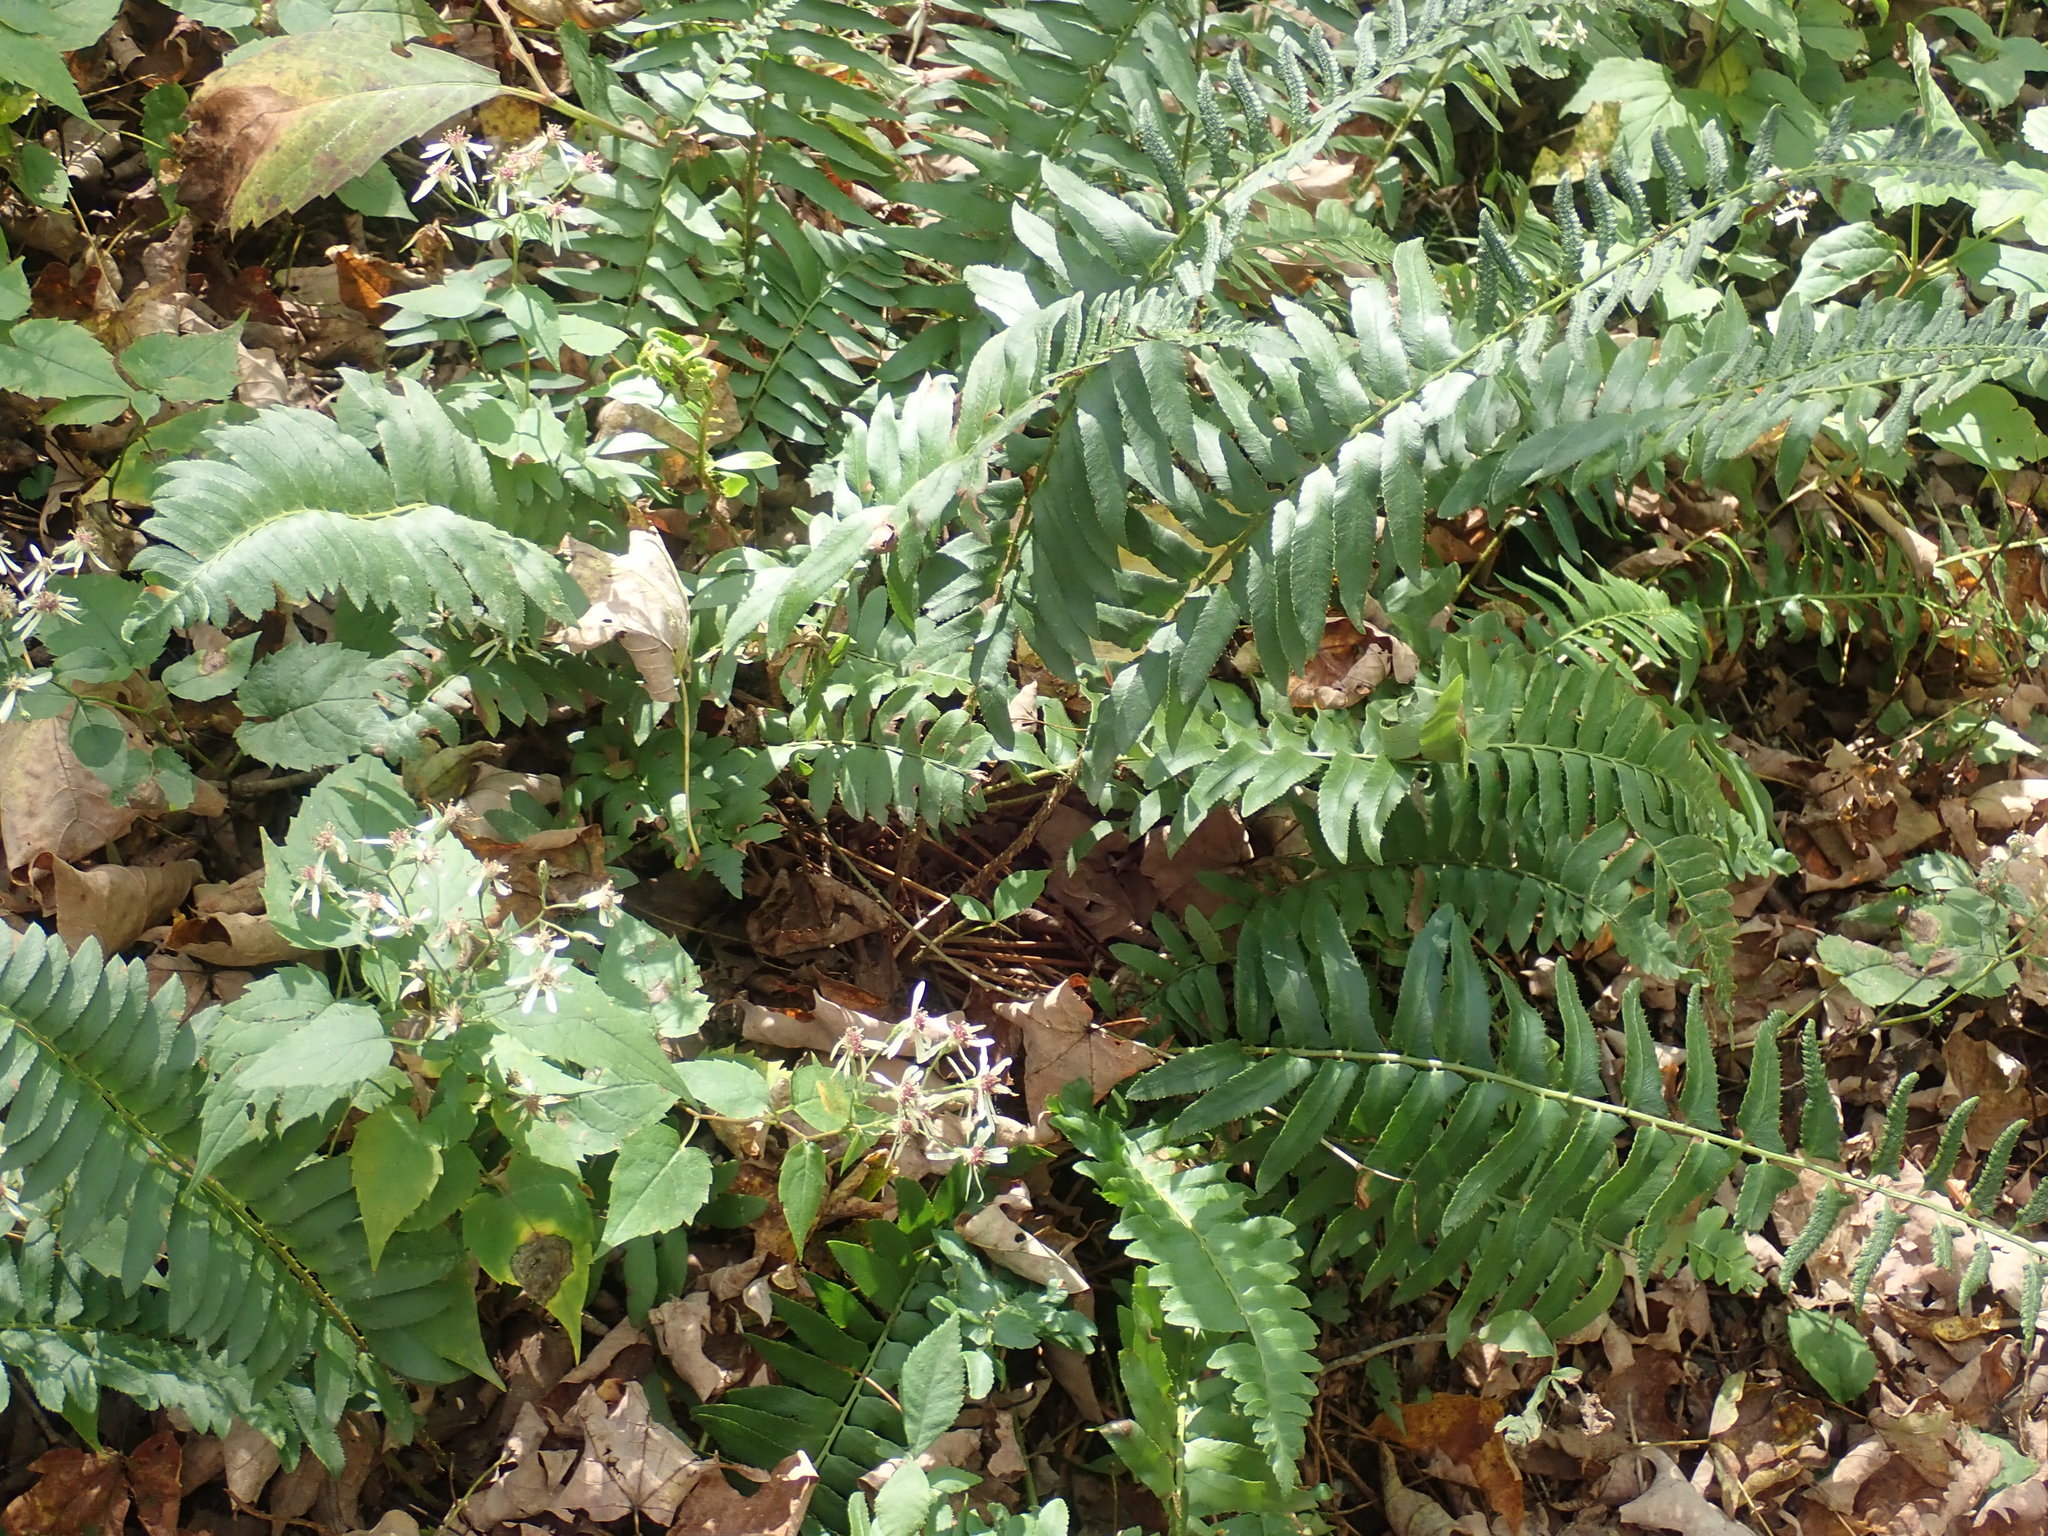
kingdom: Plantae
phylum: Tracheophyta
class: Polypodiopsida
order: Polypodiales
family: Dryopteridaceae
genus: Polystichum
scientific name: Polystichum acrostichoides
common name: Christmas fern
